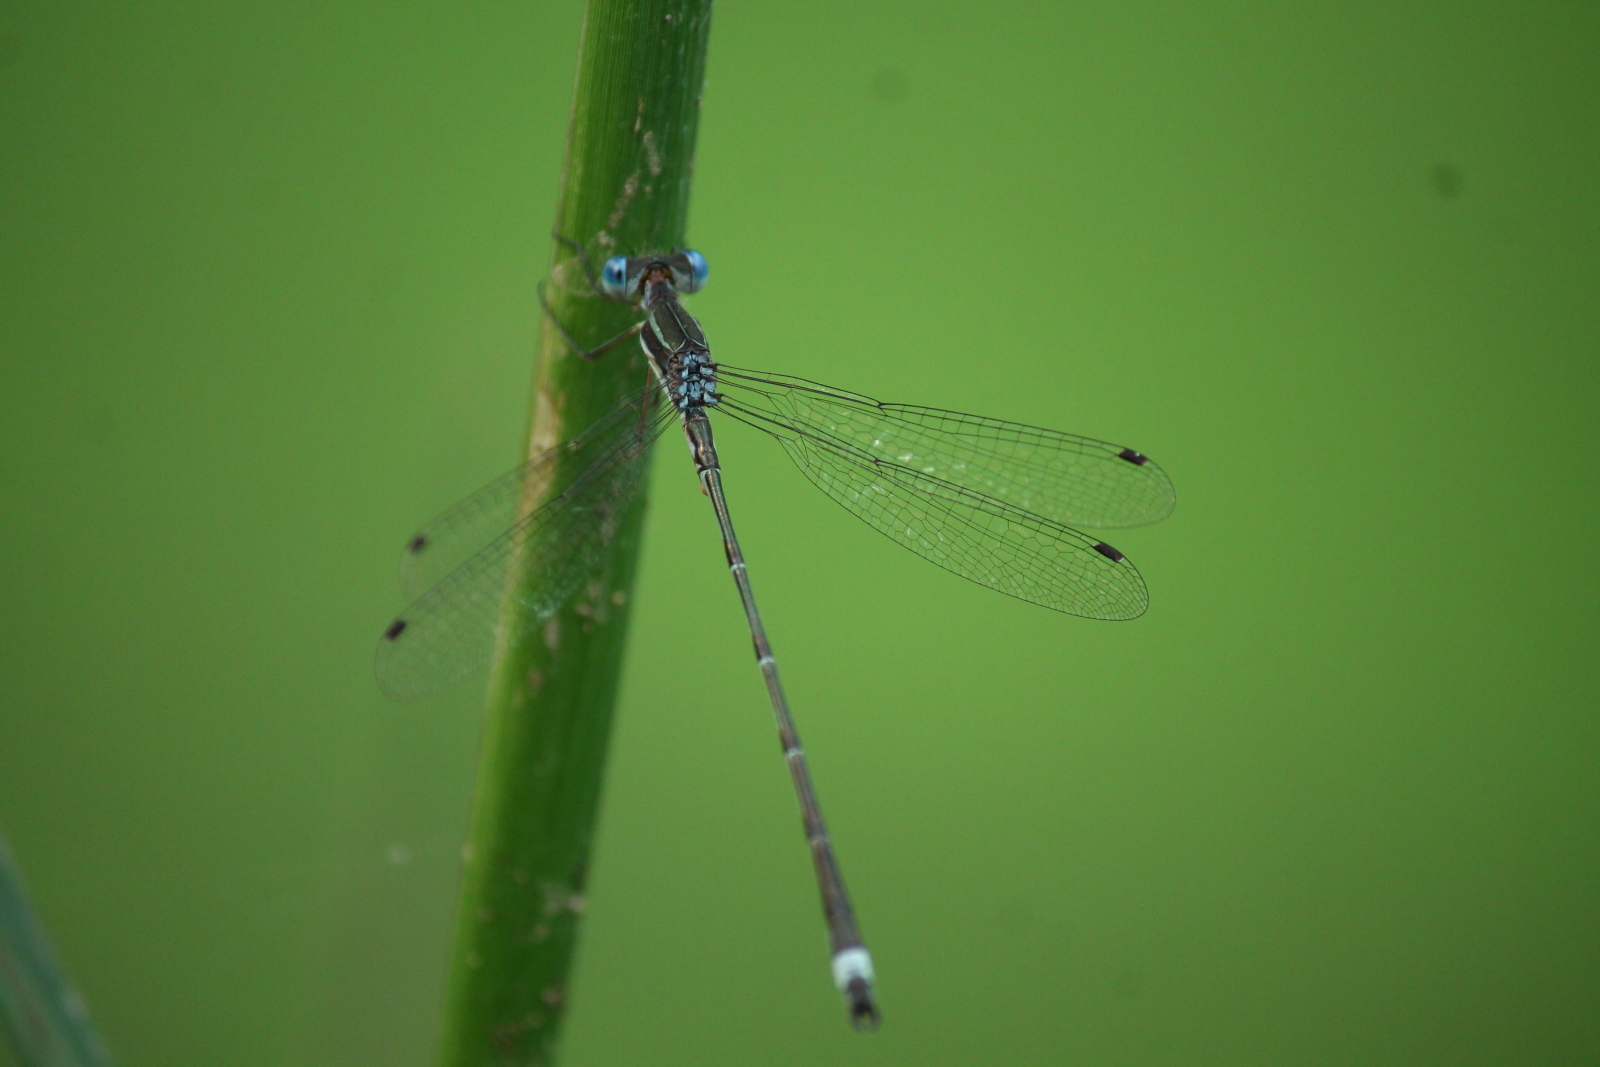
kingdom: Animalia
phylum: Arthropoda
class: Insecta
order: Odonata
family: Lestidae
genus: Lestes
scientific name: Lestes australis
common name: Southern spreadwing
